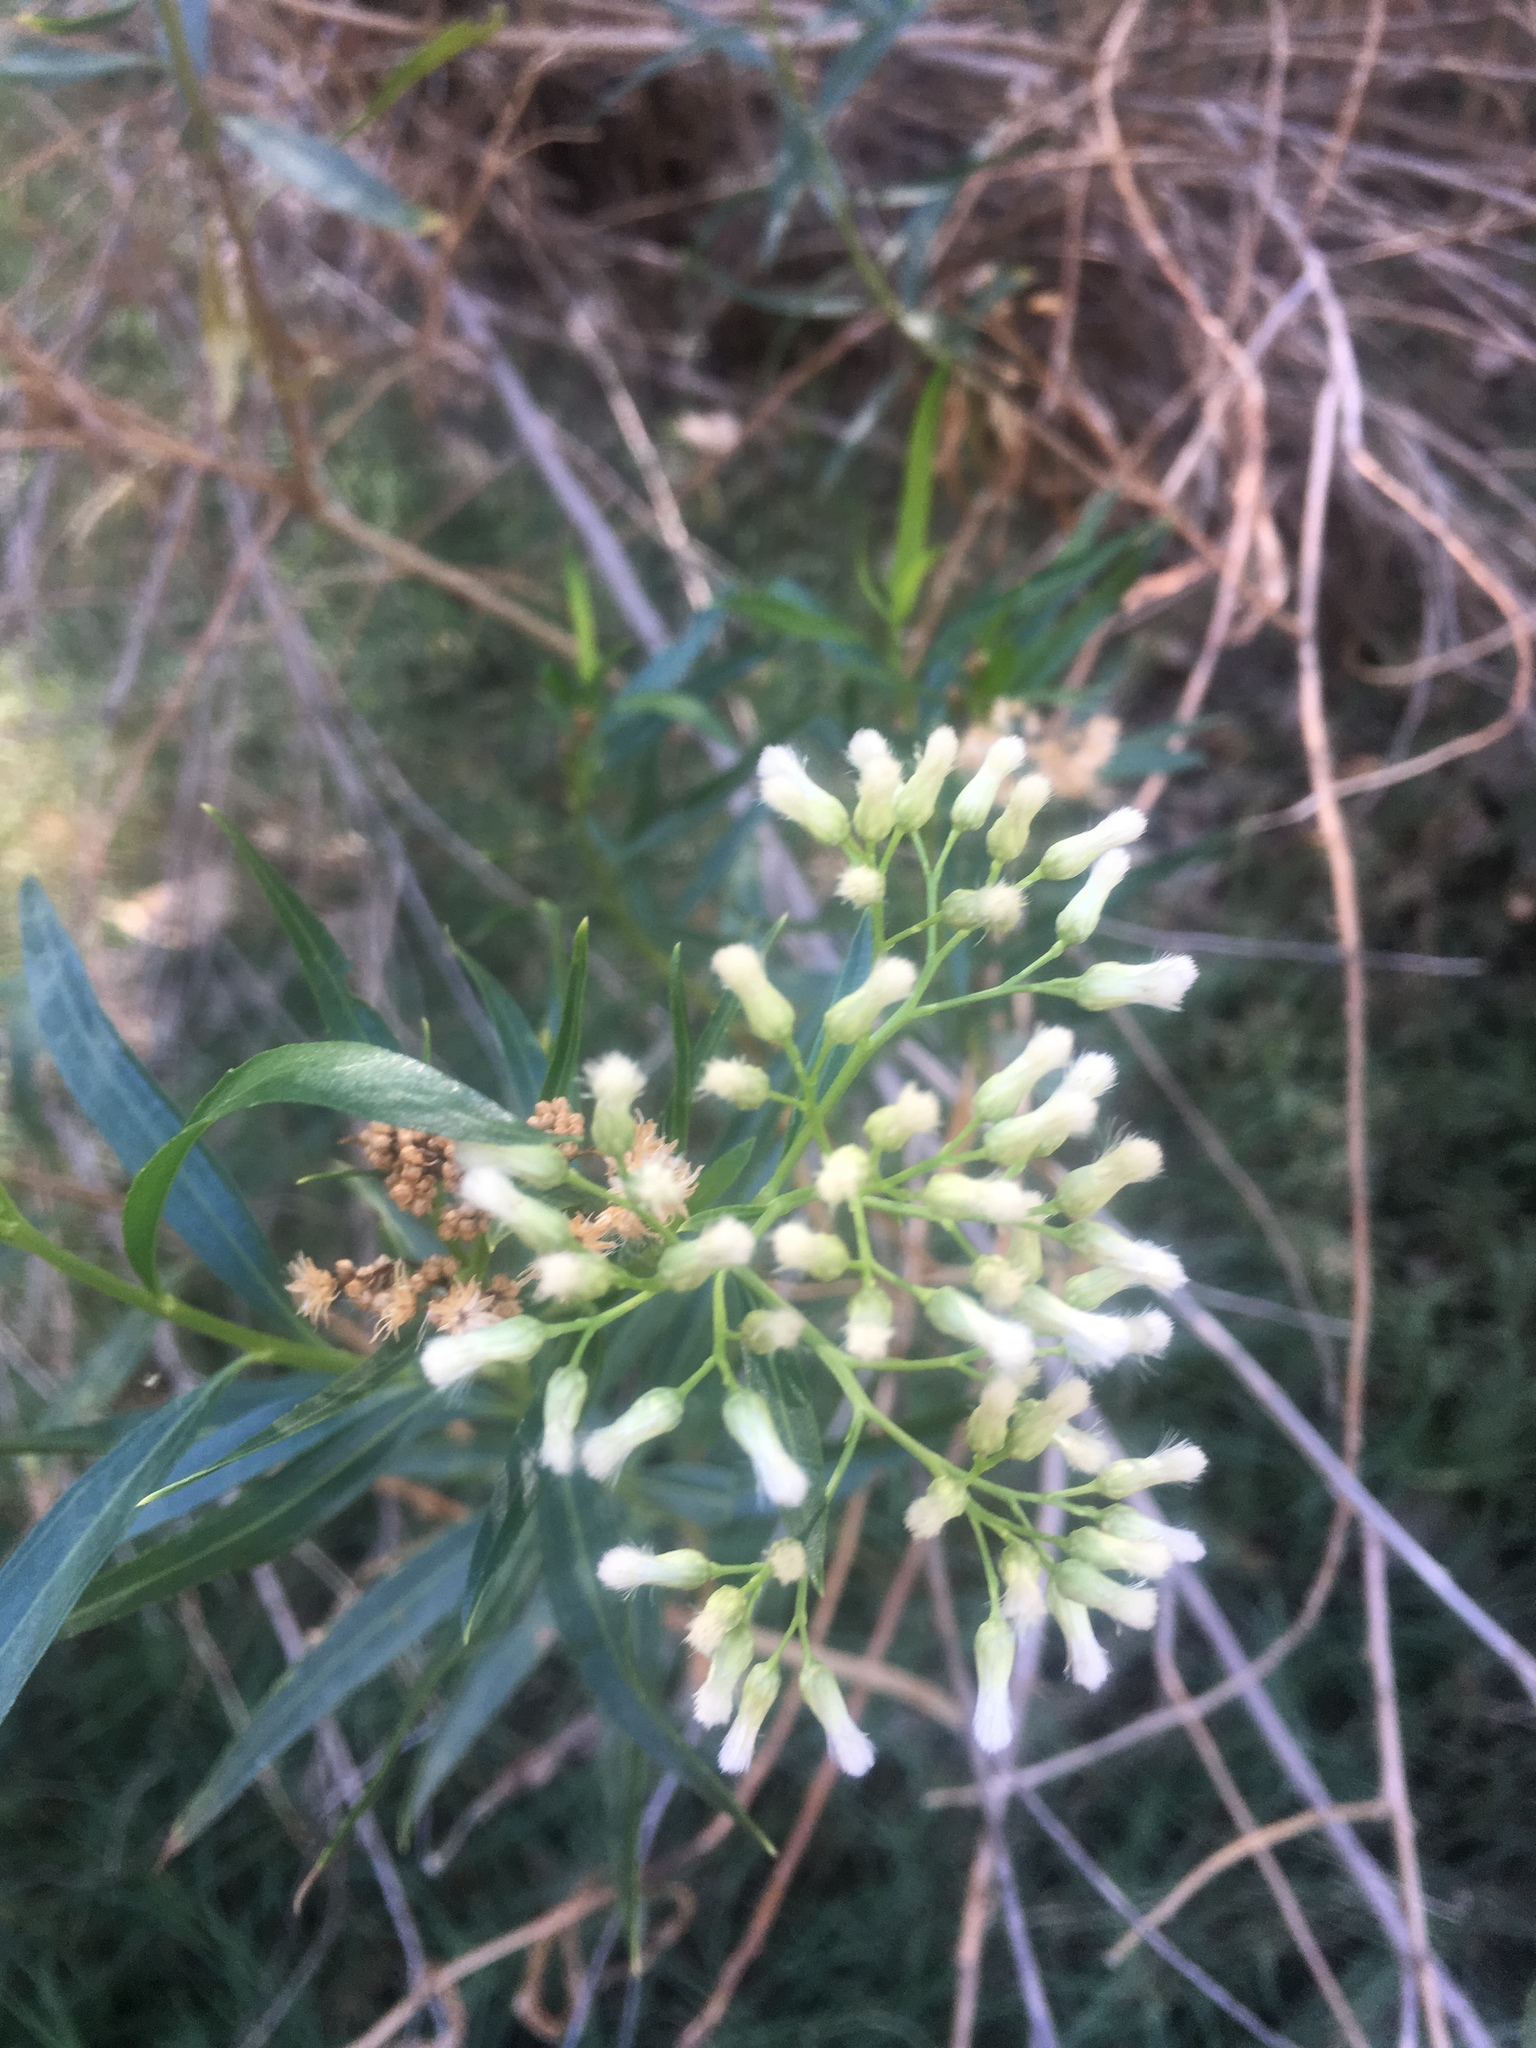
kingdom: Plantae
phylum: Tracheophyta
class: Magnoliopsida
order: Asterales
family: Asteraceae
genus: Baccharis
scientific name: Baccharis salicifolia
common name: Sticky baccharis
